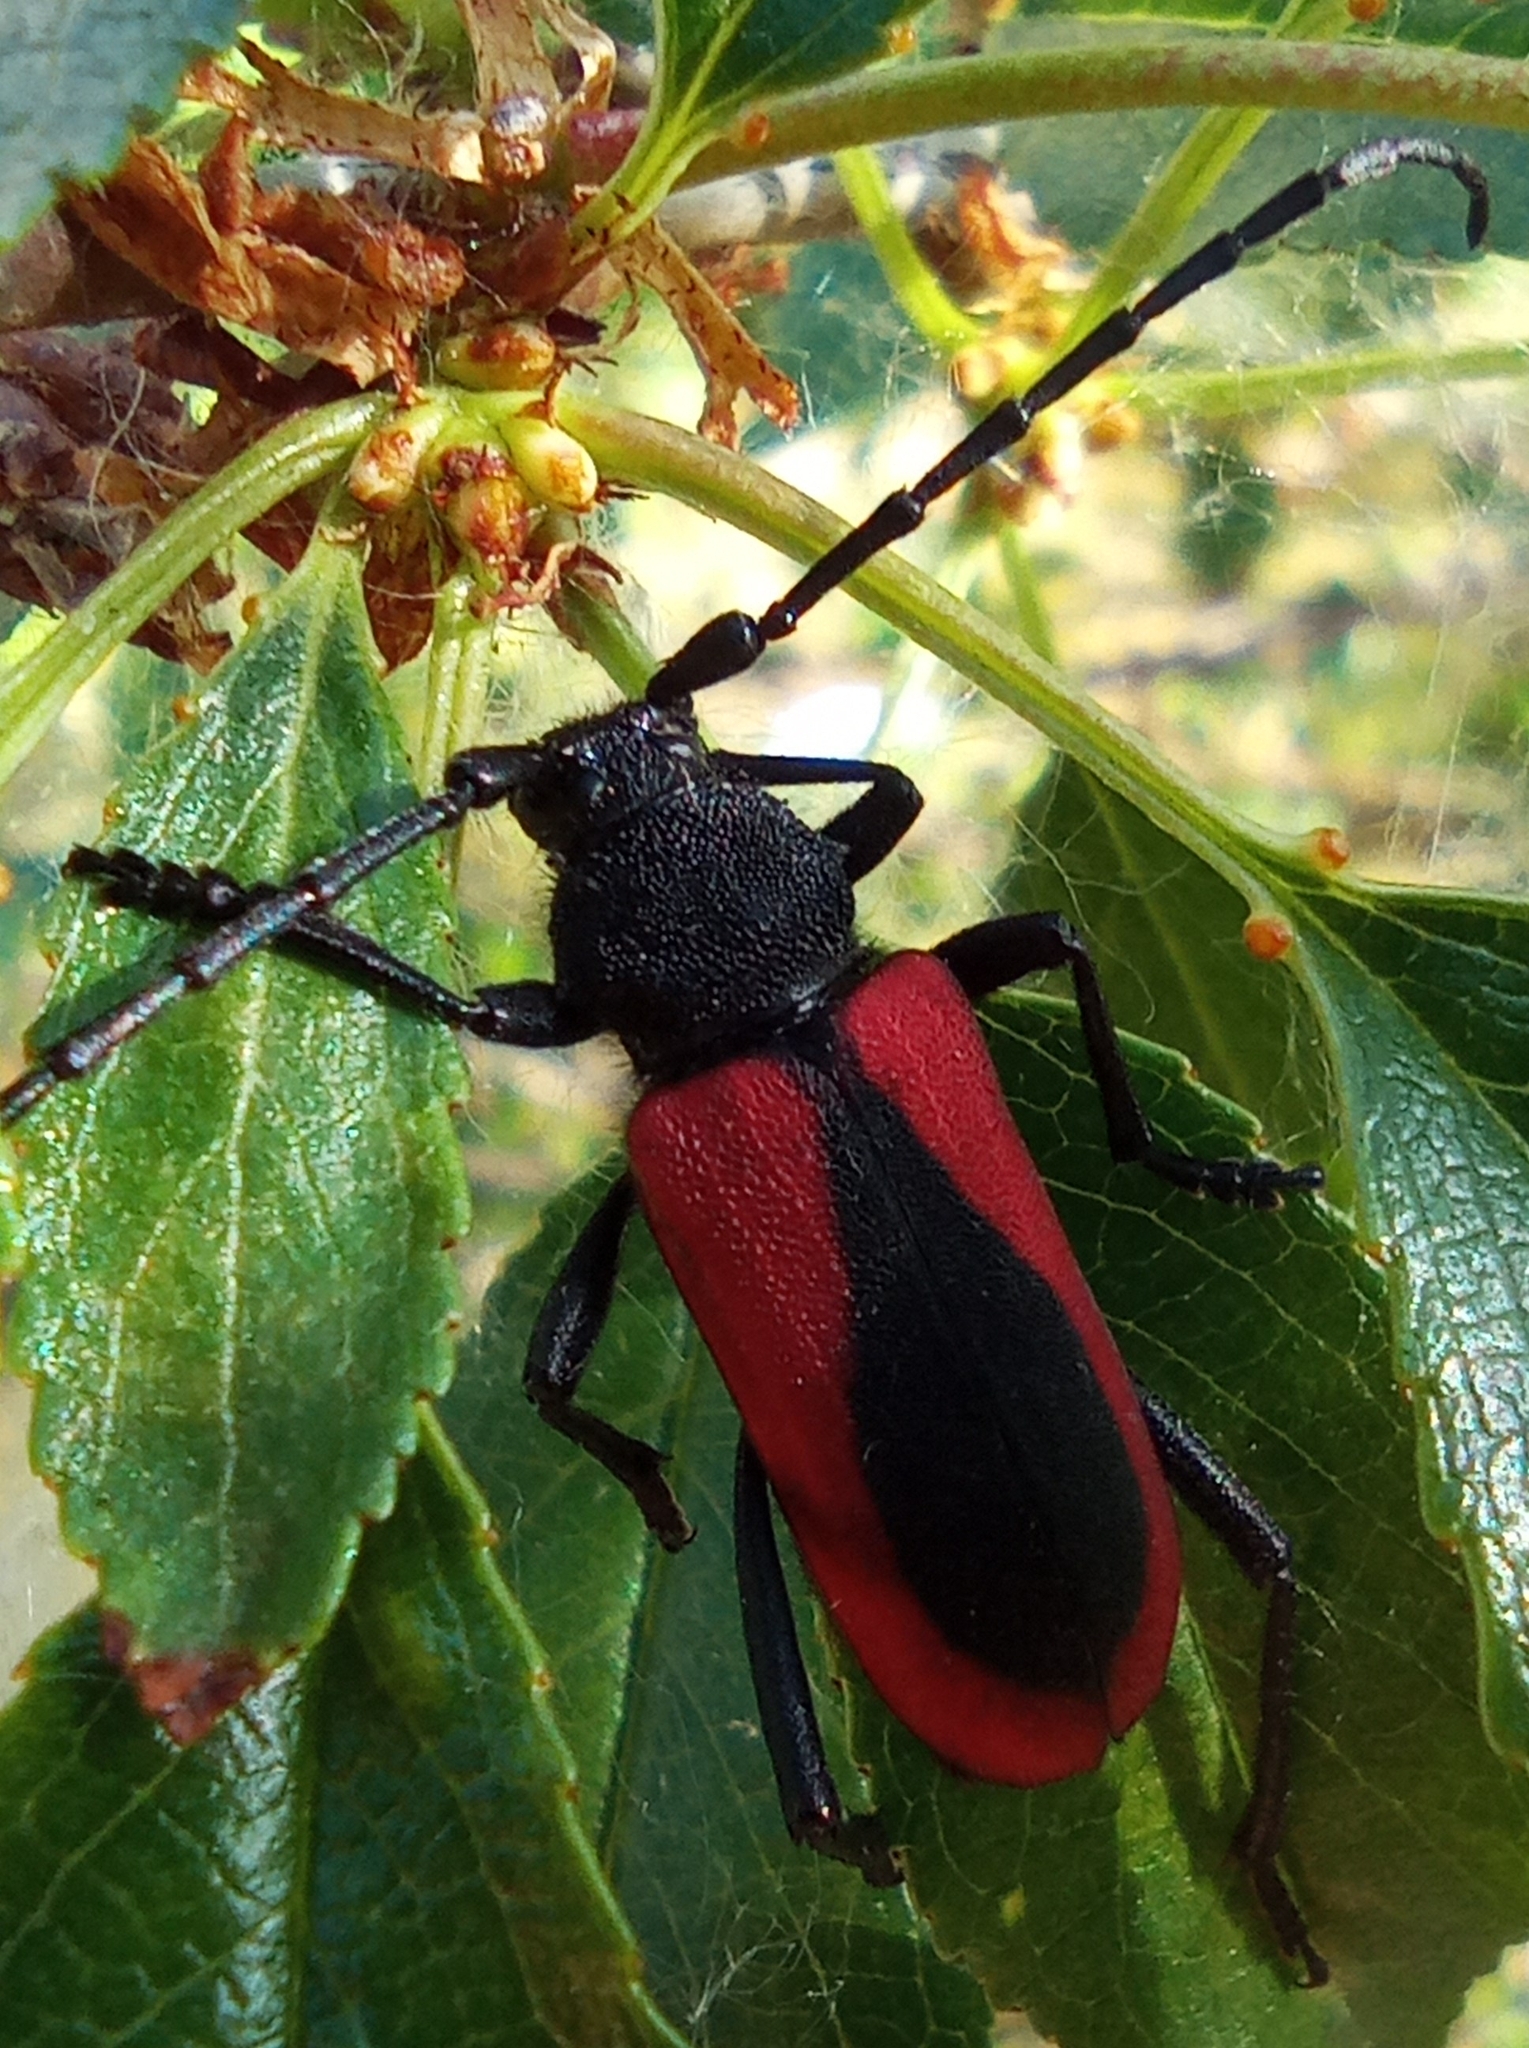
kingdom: Animalia
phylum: Arthropoda
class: Insecta
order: Coleoptera
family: Cerambycidae
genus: Purpuricenus
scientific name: Purpuricenus kaehleri
